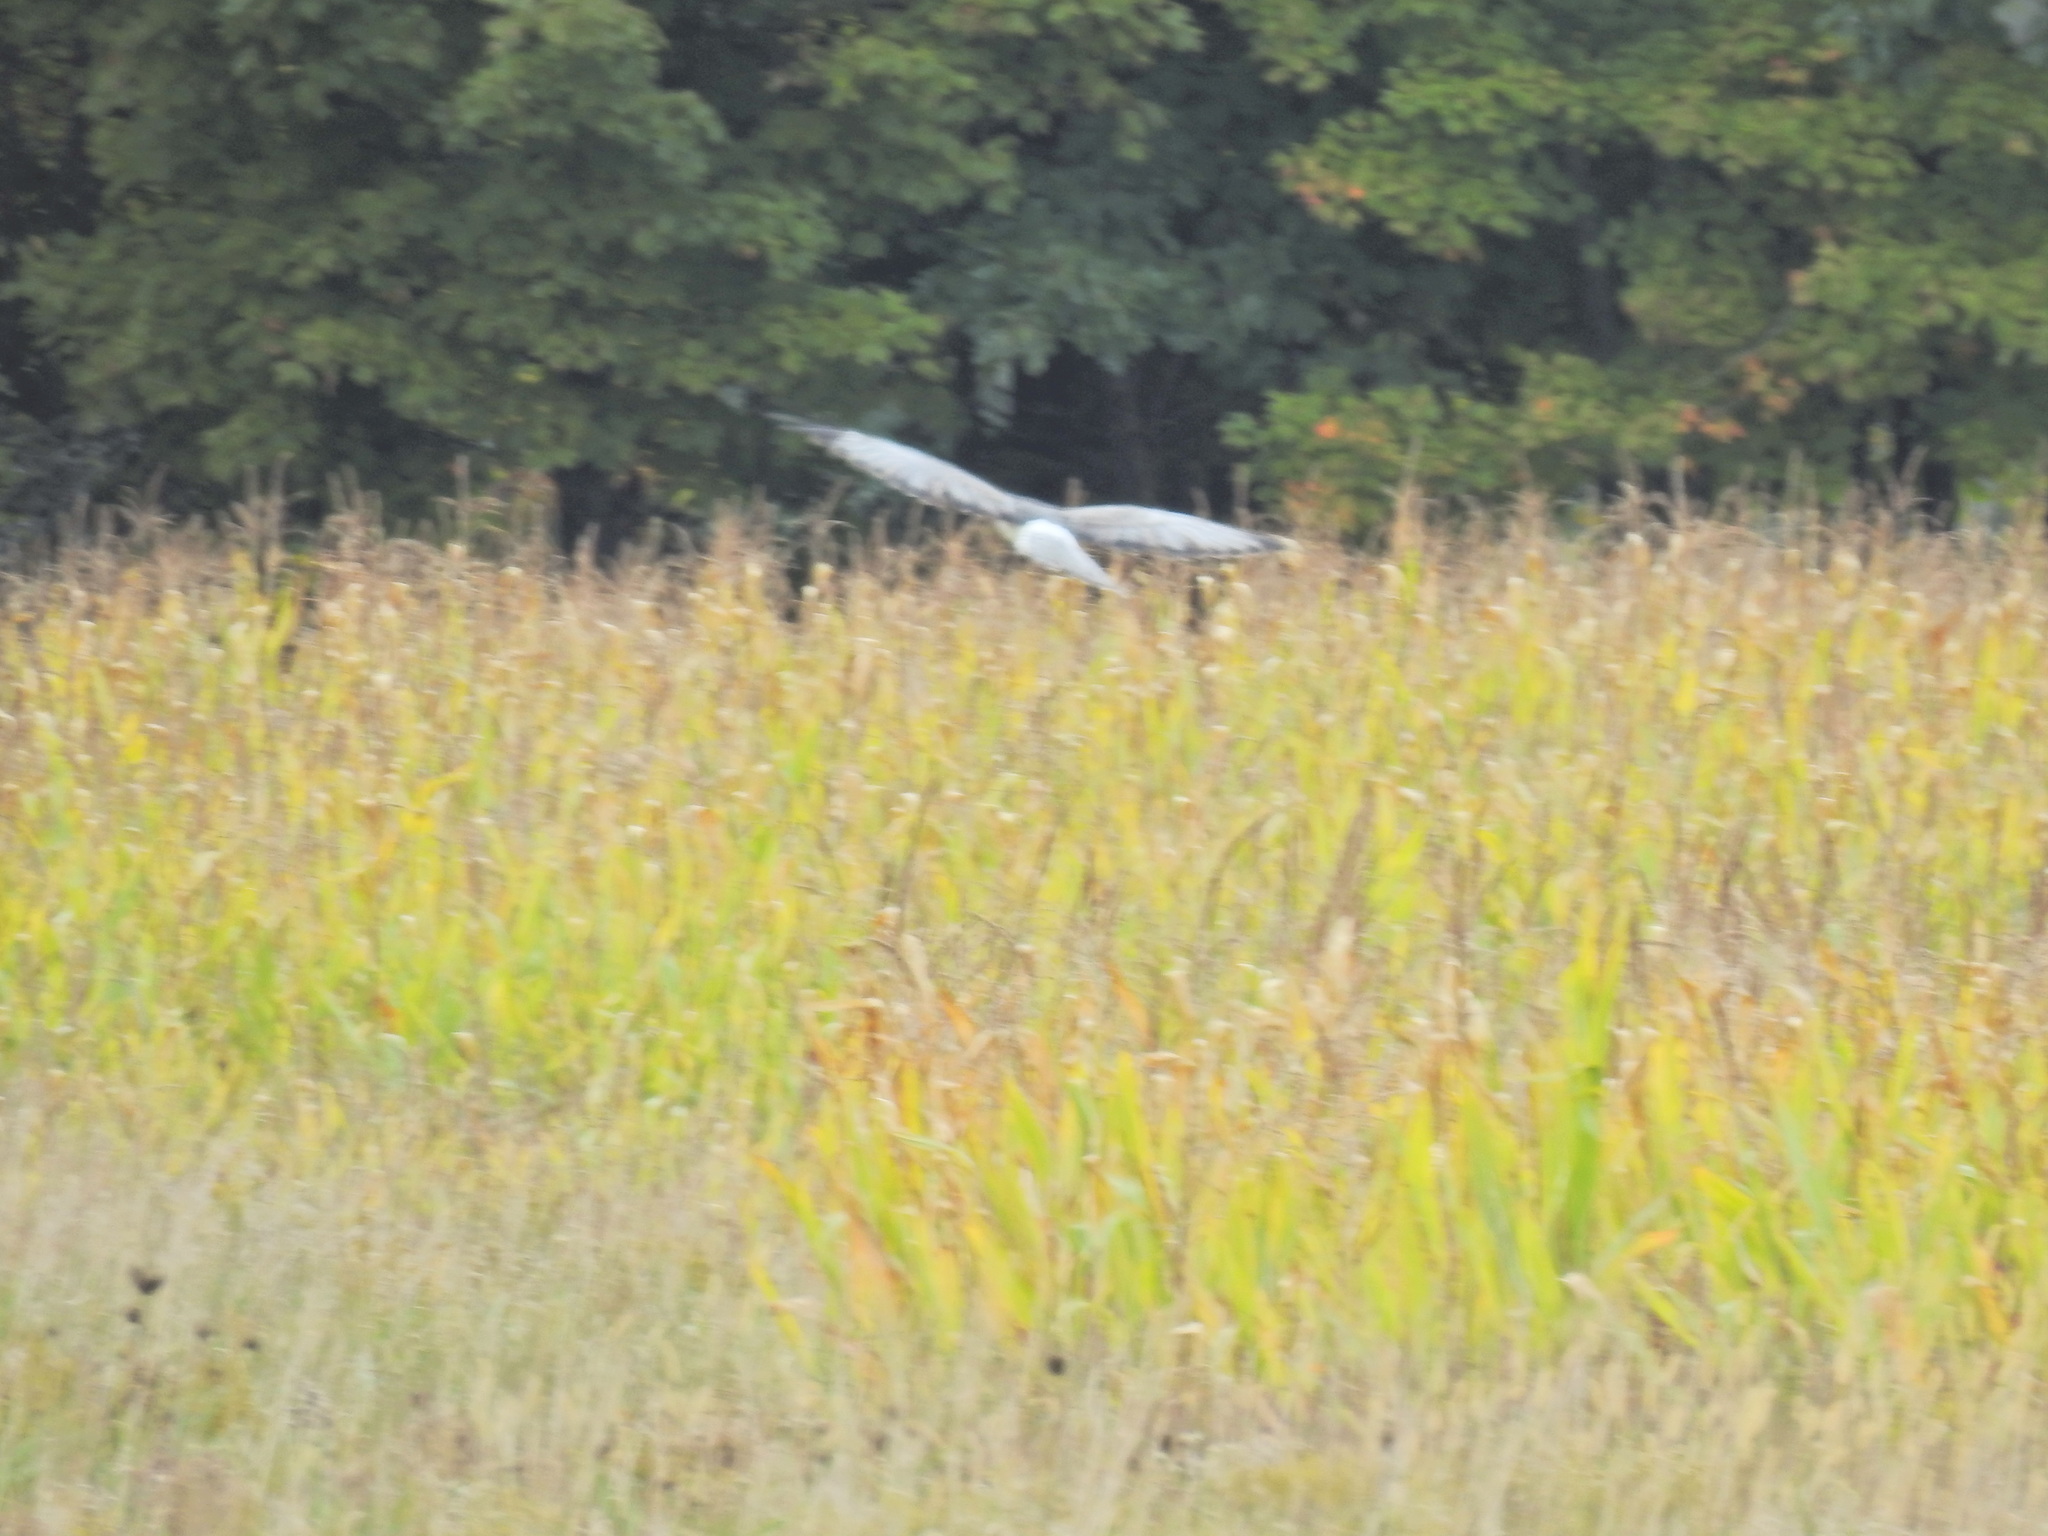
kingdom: Animalia
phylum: Chordata
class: Aves
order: Accipitriformes
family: Accipitridae
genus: Circus
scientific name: Circus cyaneus
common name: Hen harrier
